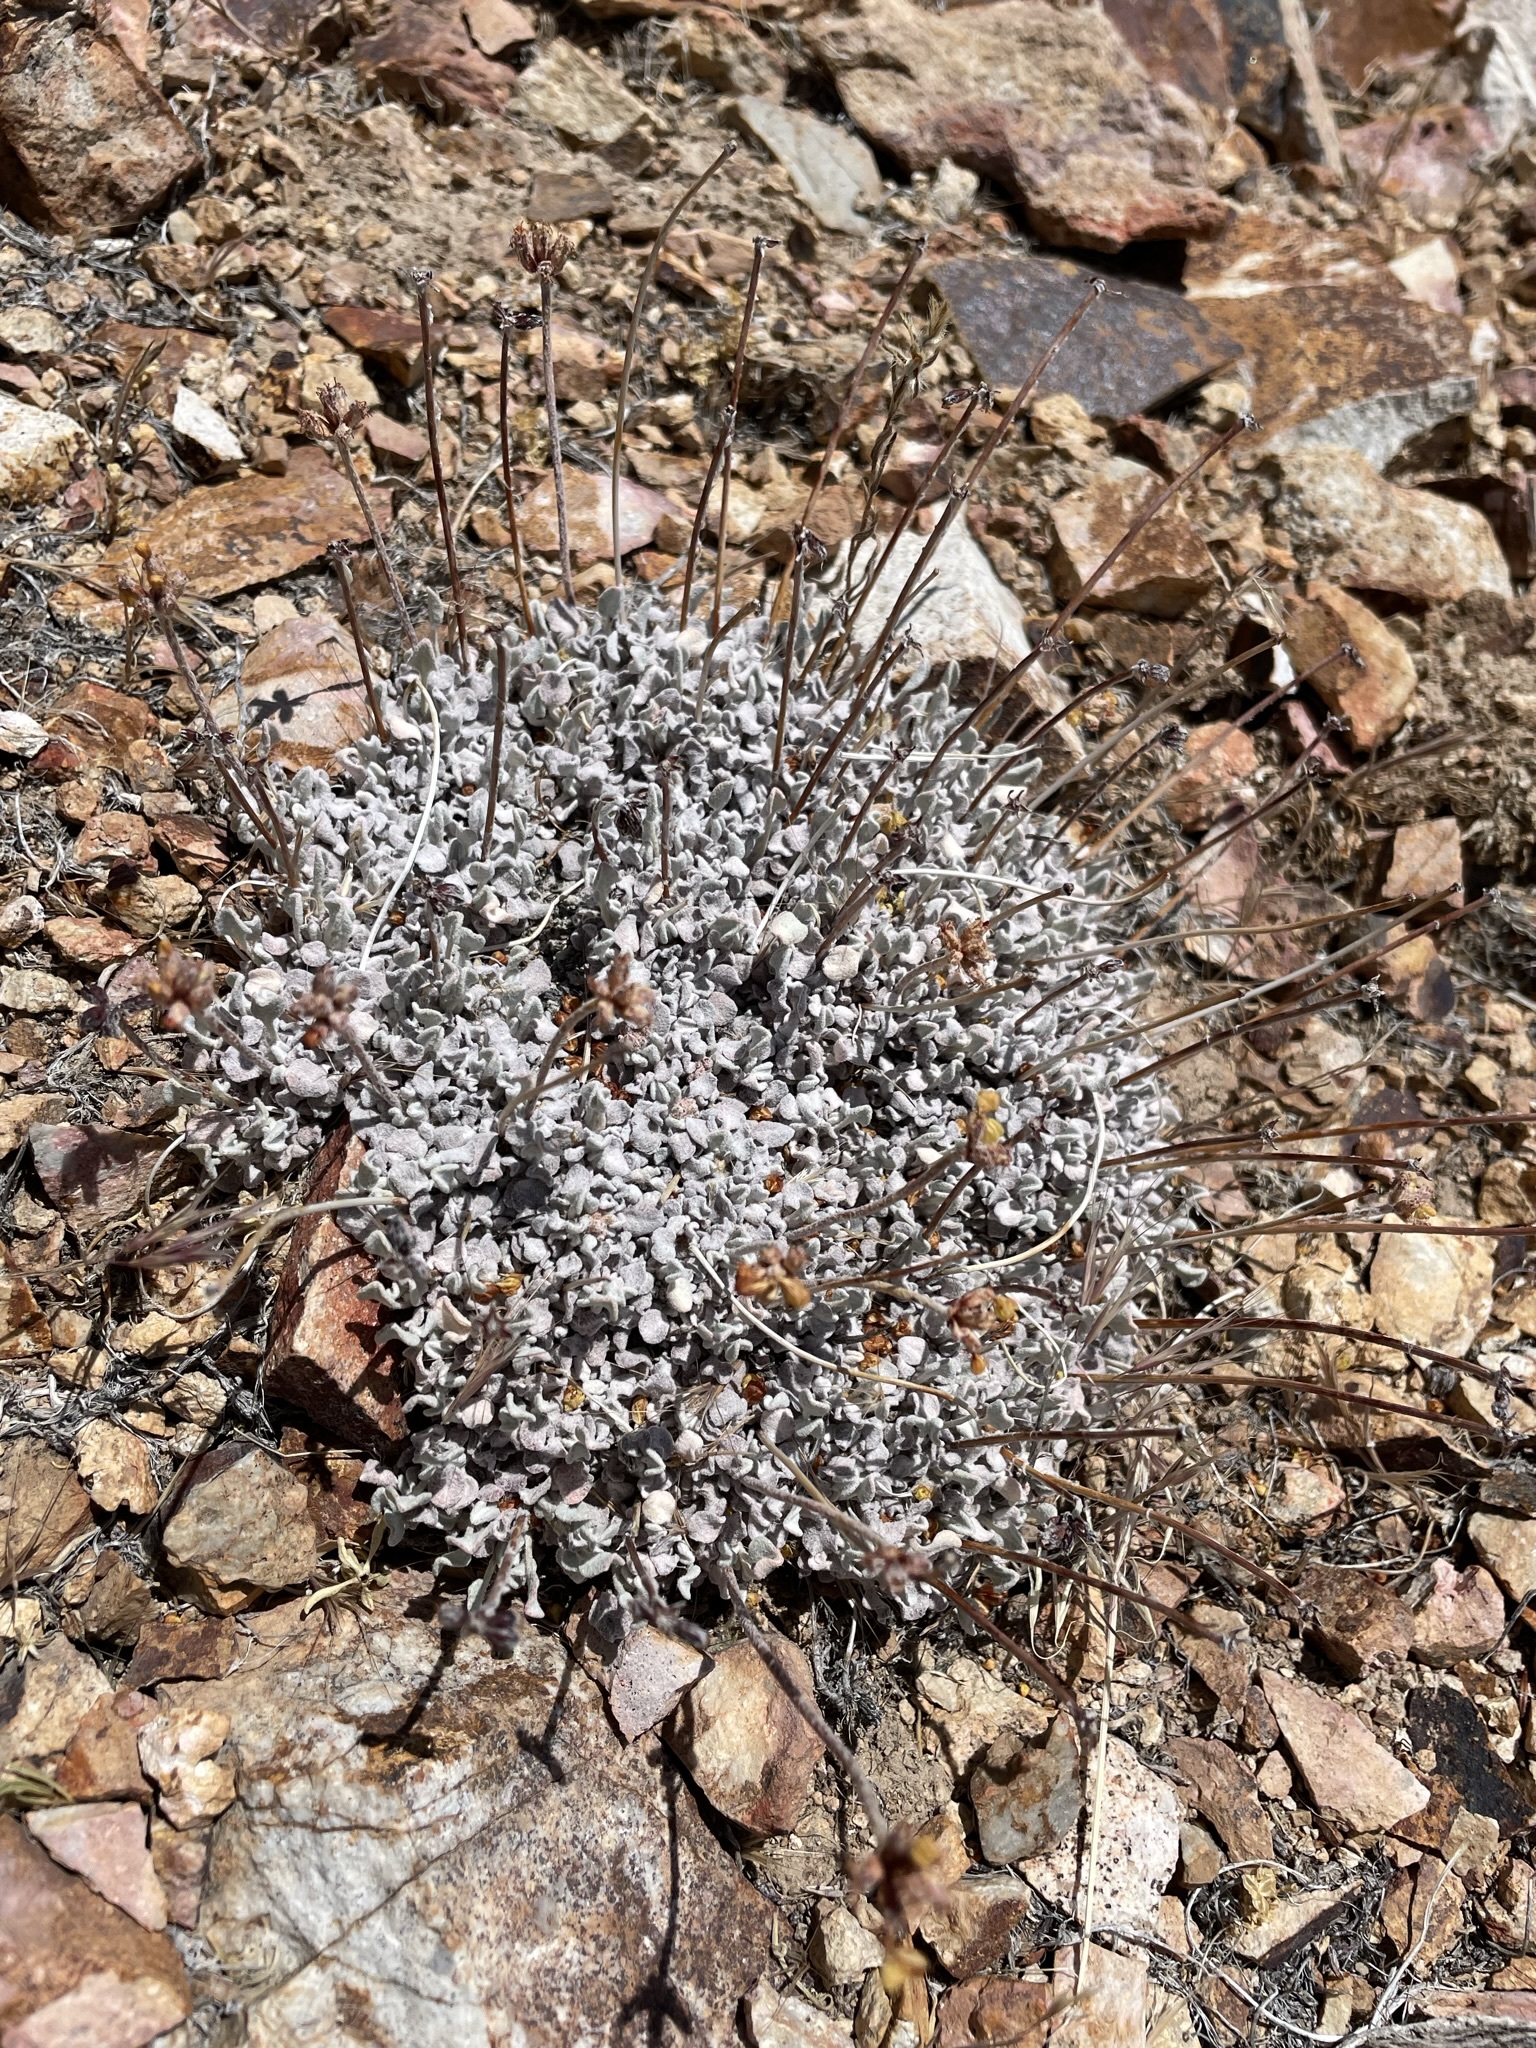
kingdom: Plantae
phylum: Tracheophyta
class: Magnoliopsida
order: Caryophyllales
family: Polygonaceae
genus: Eriogonum
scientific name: Eriogonum ovalifolium
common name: Cushion buckwheat
